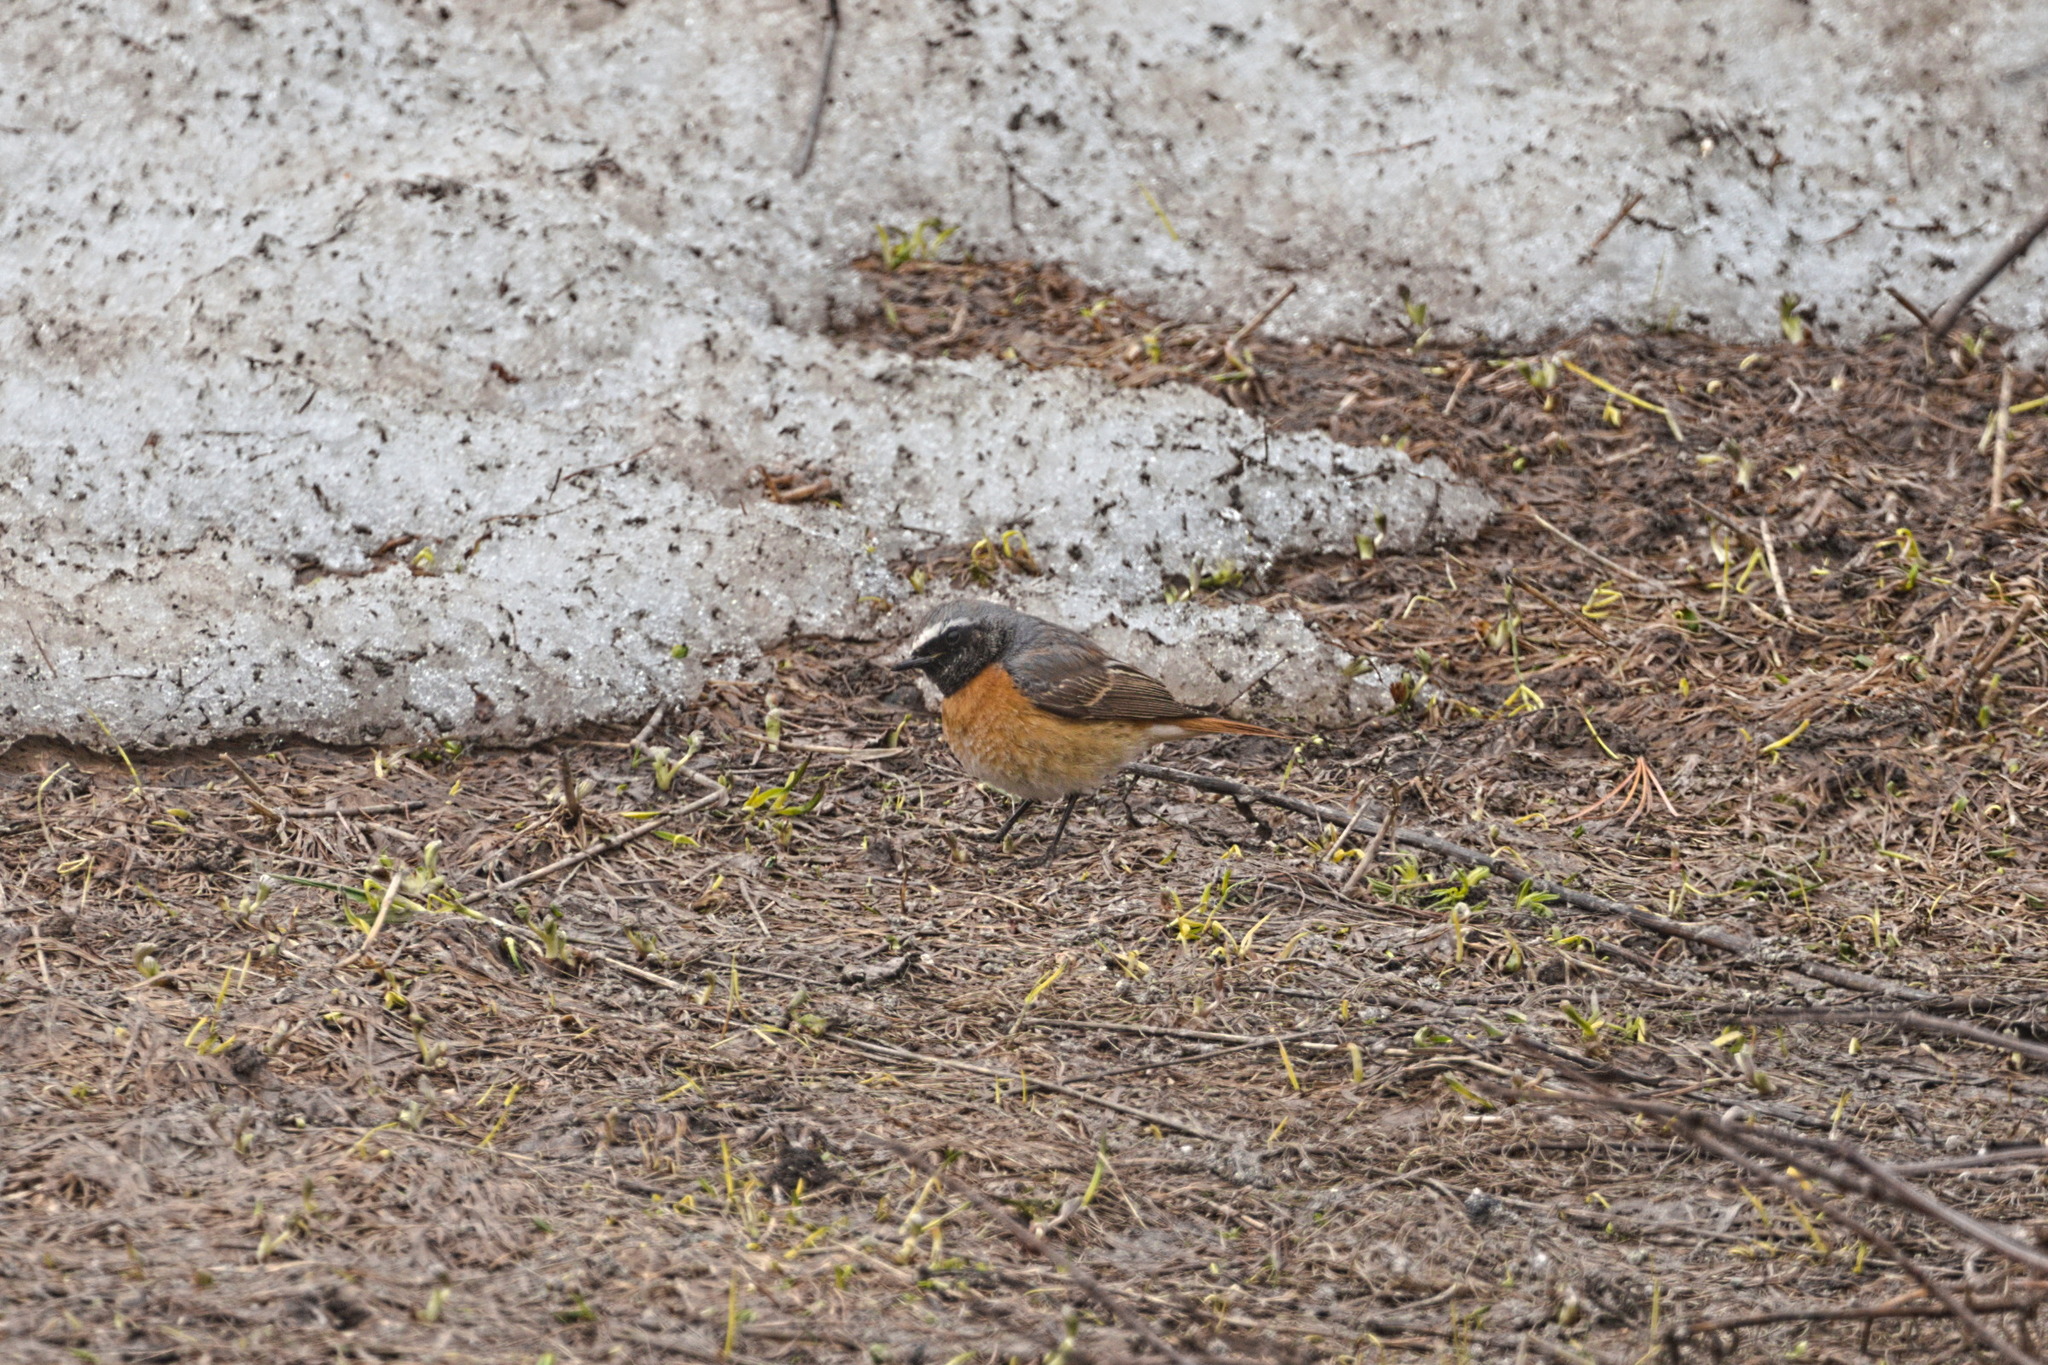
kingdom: Animalia
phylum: Chordata
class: Aves
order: Passeriformes
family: Muscicapidae
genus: Phoenicurus
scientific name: Phoenicurus phoenicurus
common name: Common redstart
